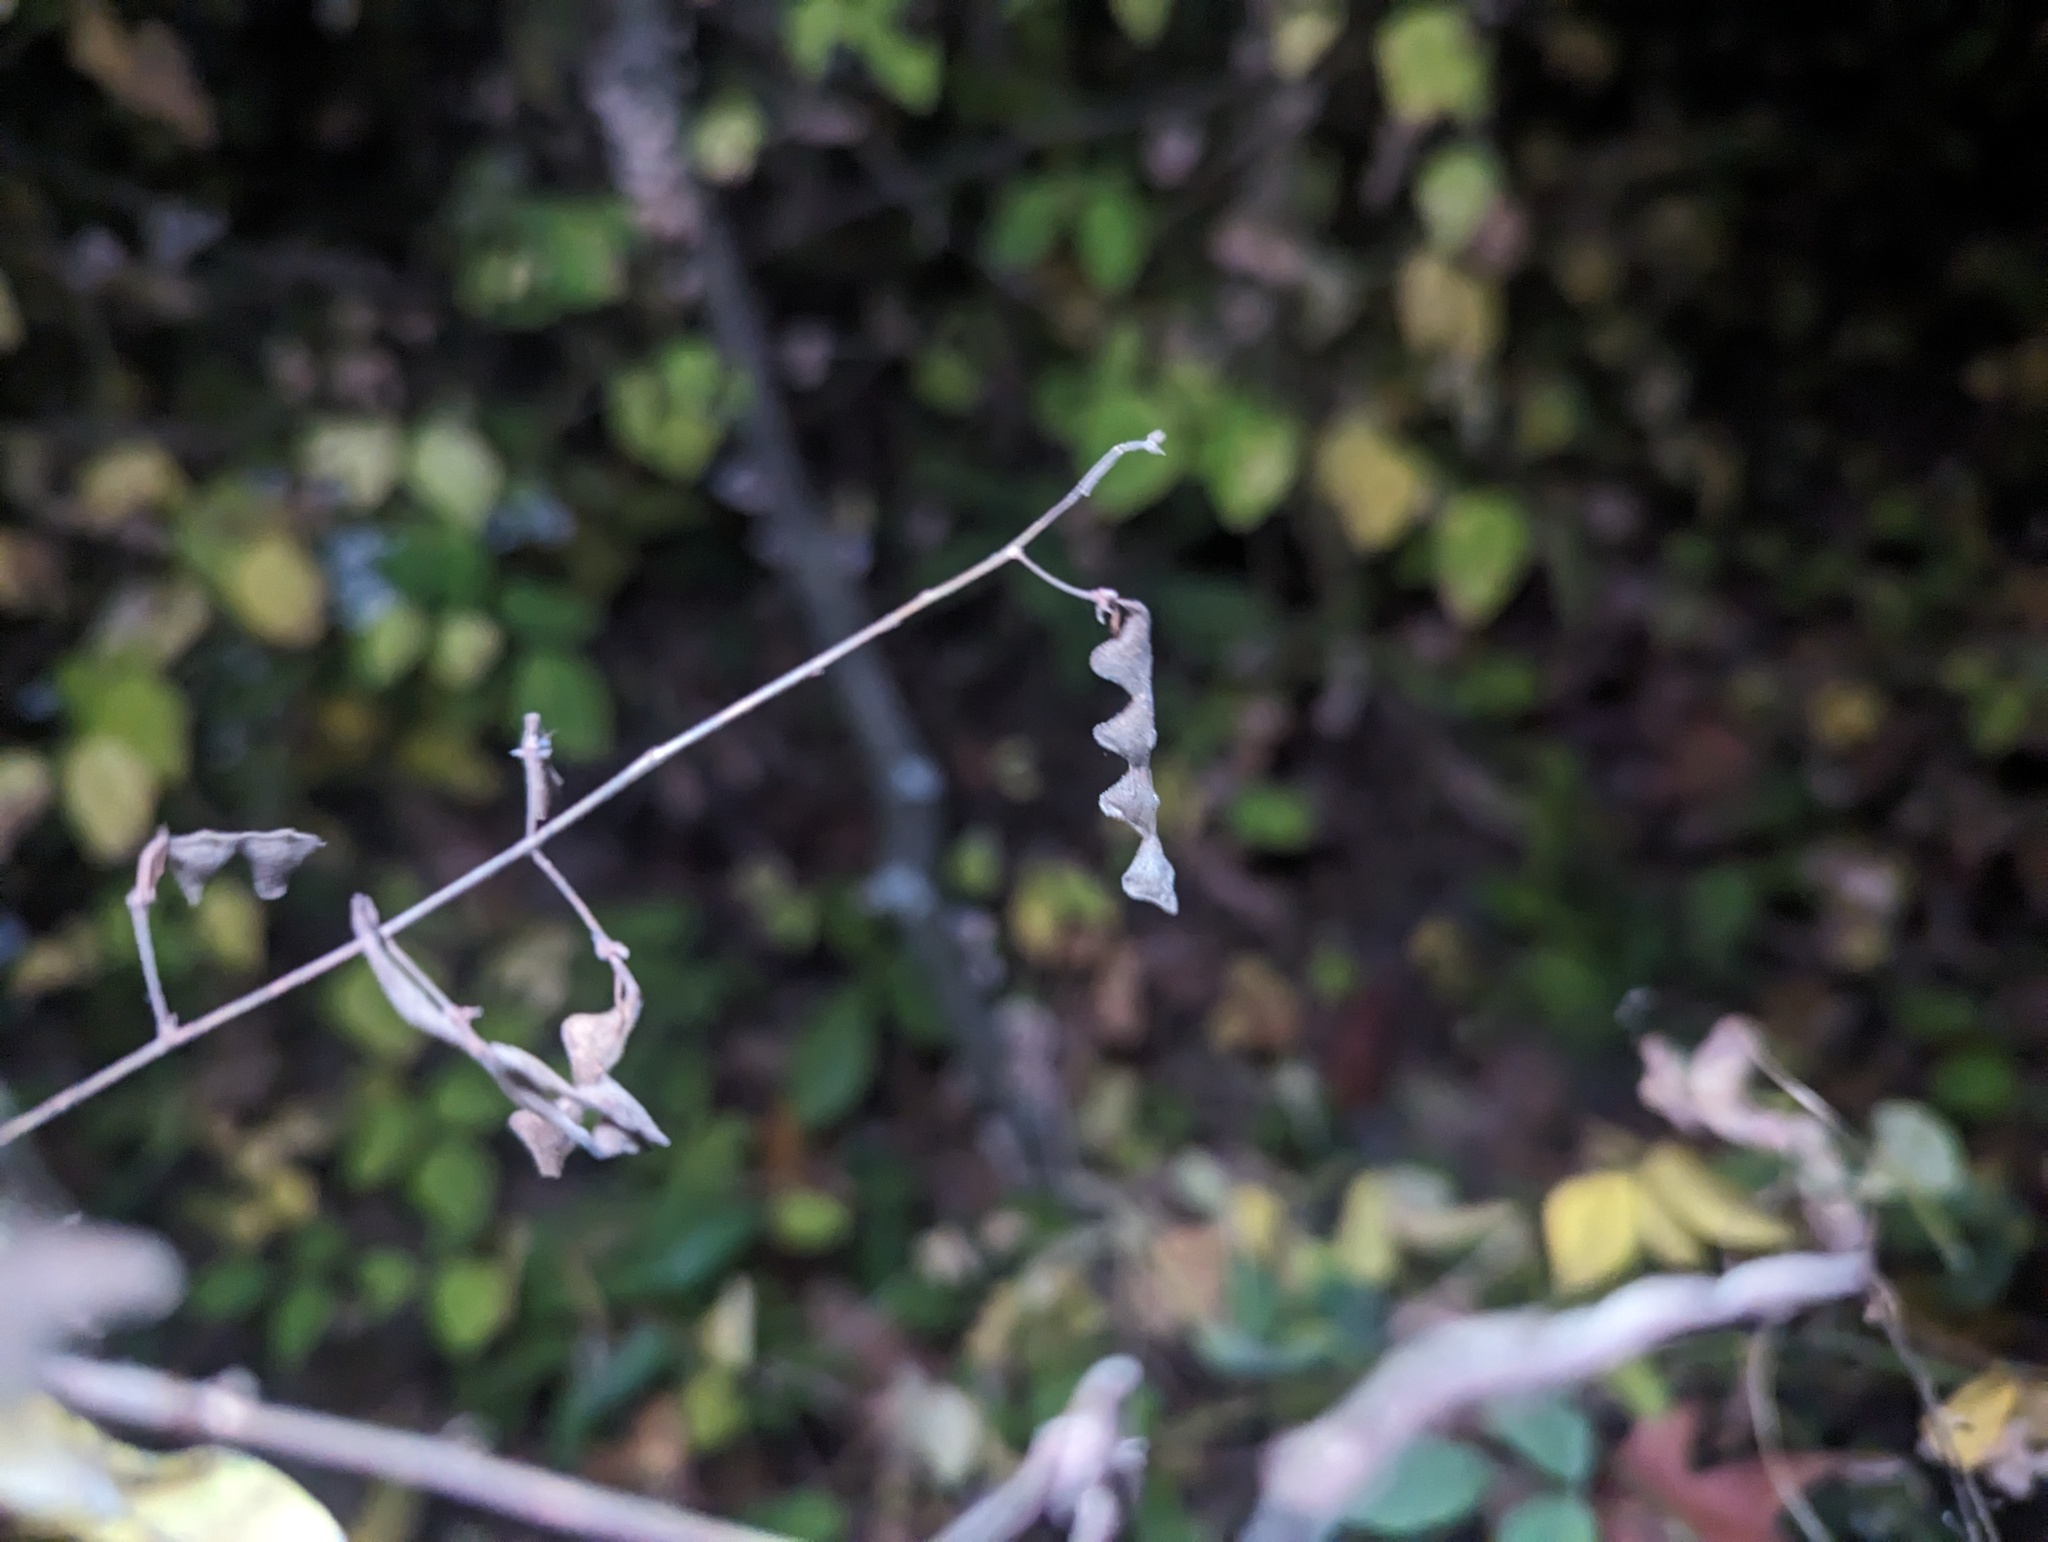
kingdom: Plantae
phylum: Tracheophyta
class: Magnoliopsida
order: Fabales
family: Fabaceae
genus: Desmodium
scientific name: Desmodium paniculatum
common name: Panicled tick-clover
